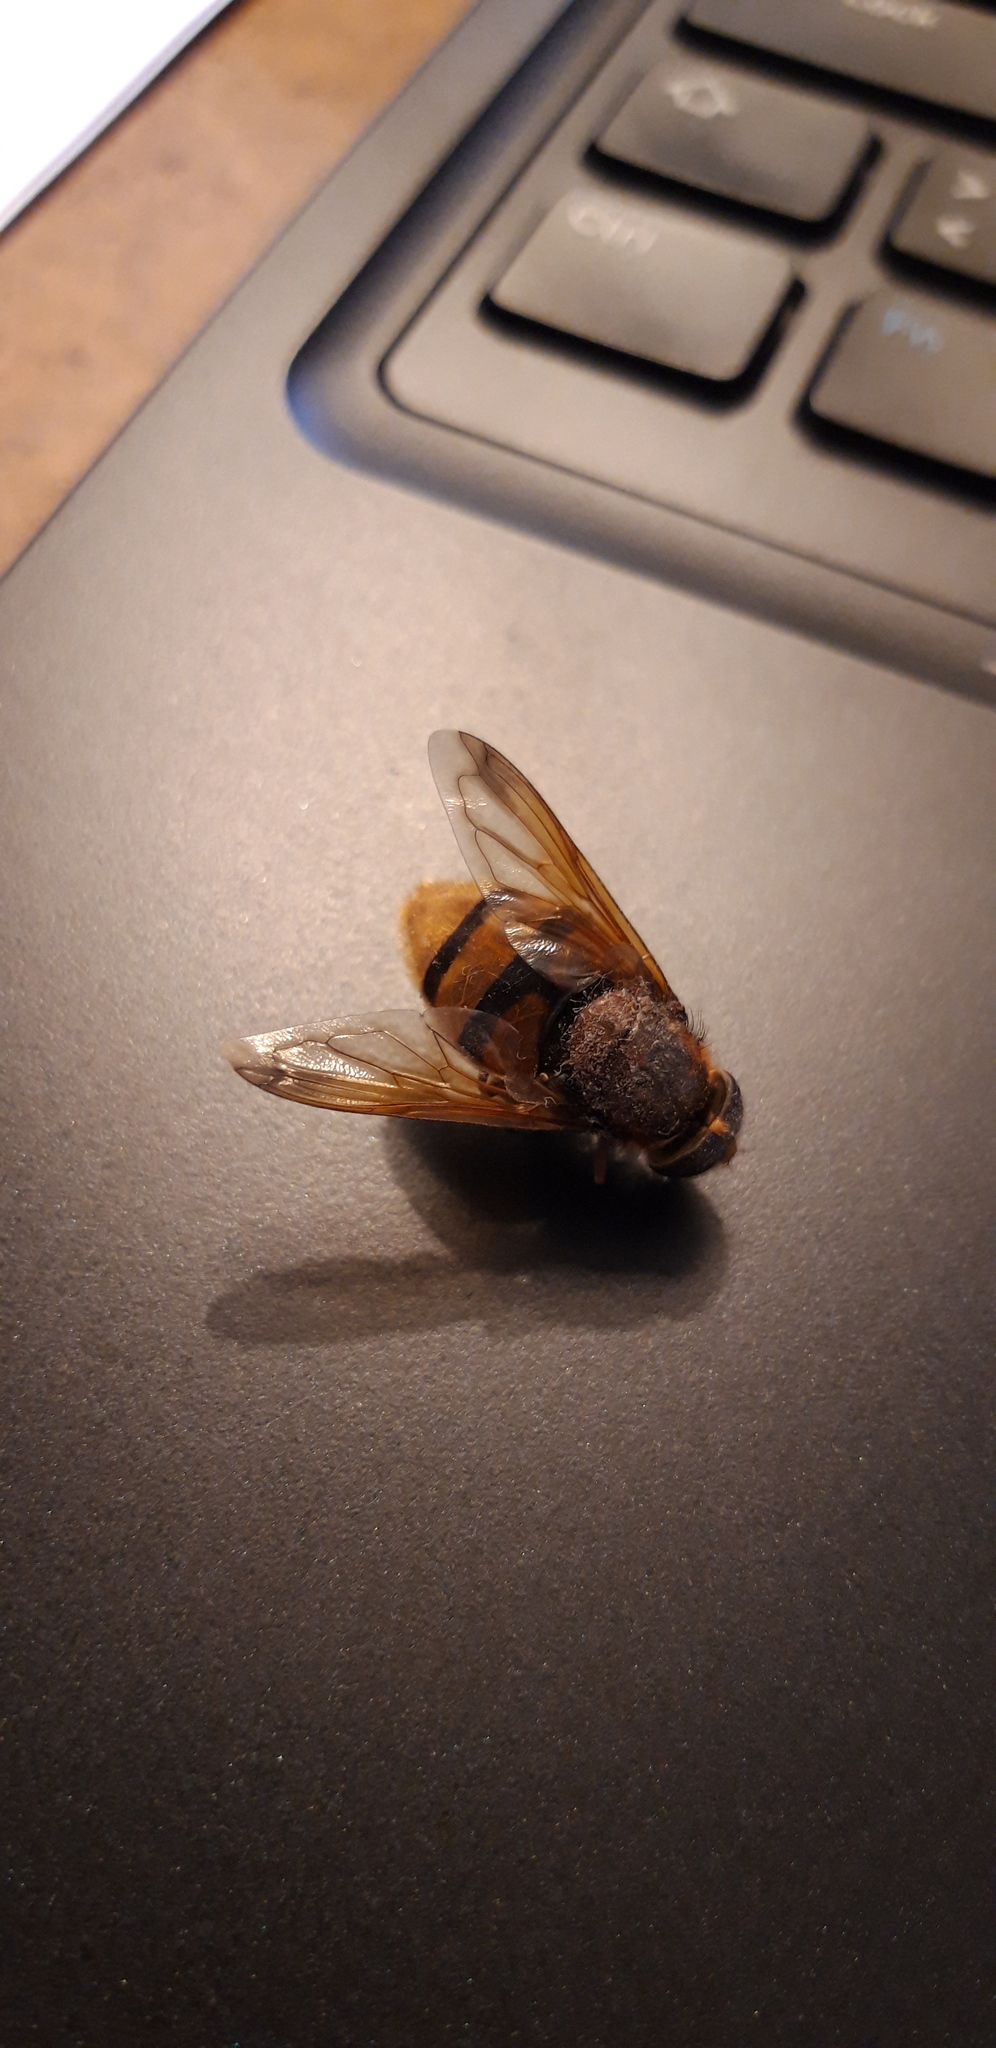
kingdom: Animalia
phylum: Arthropoda
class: Insecta
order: Diptera
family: Syrphidae
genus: Volucella
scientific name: Volucella zonaria
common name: Hornet hoverfly
